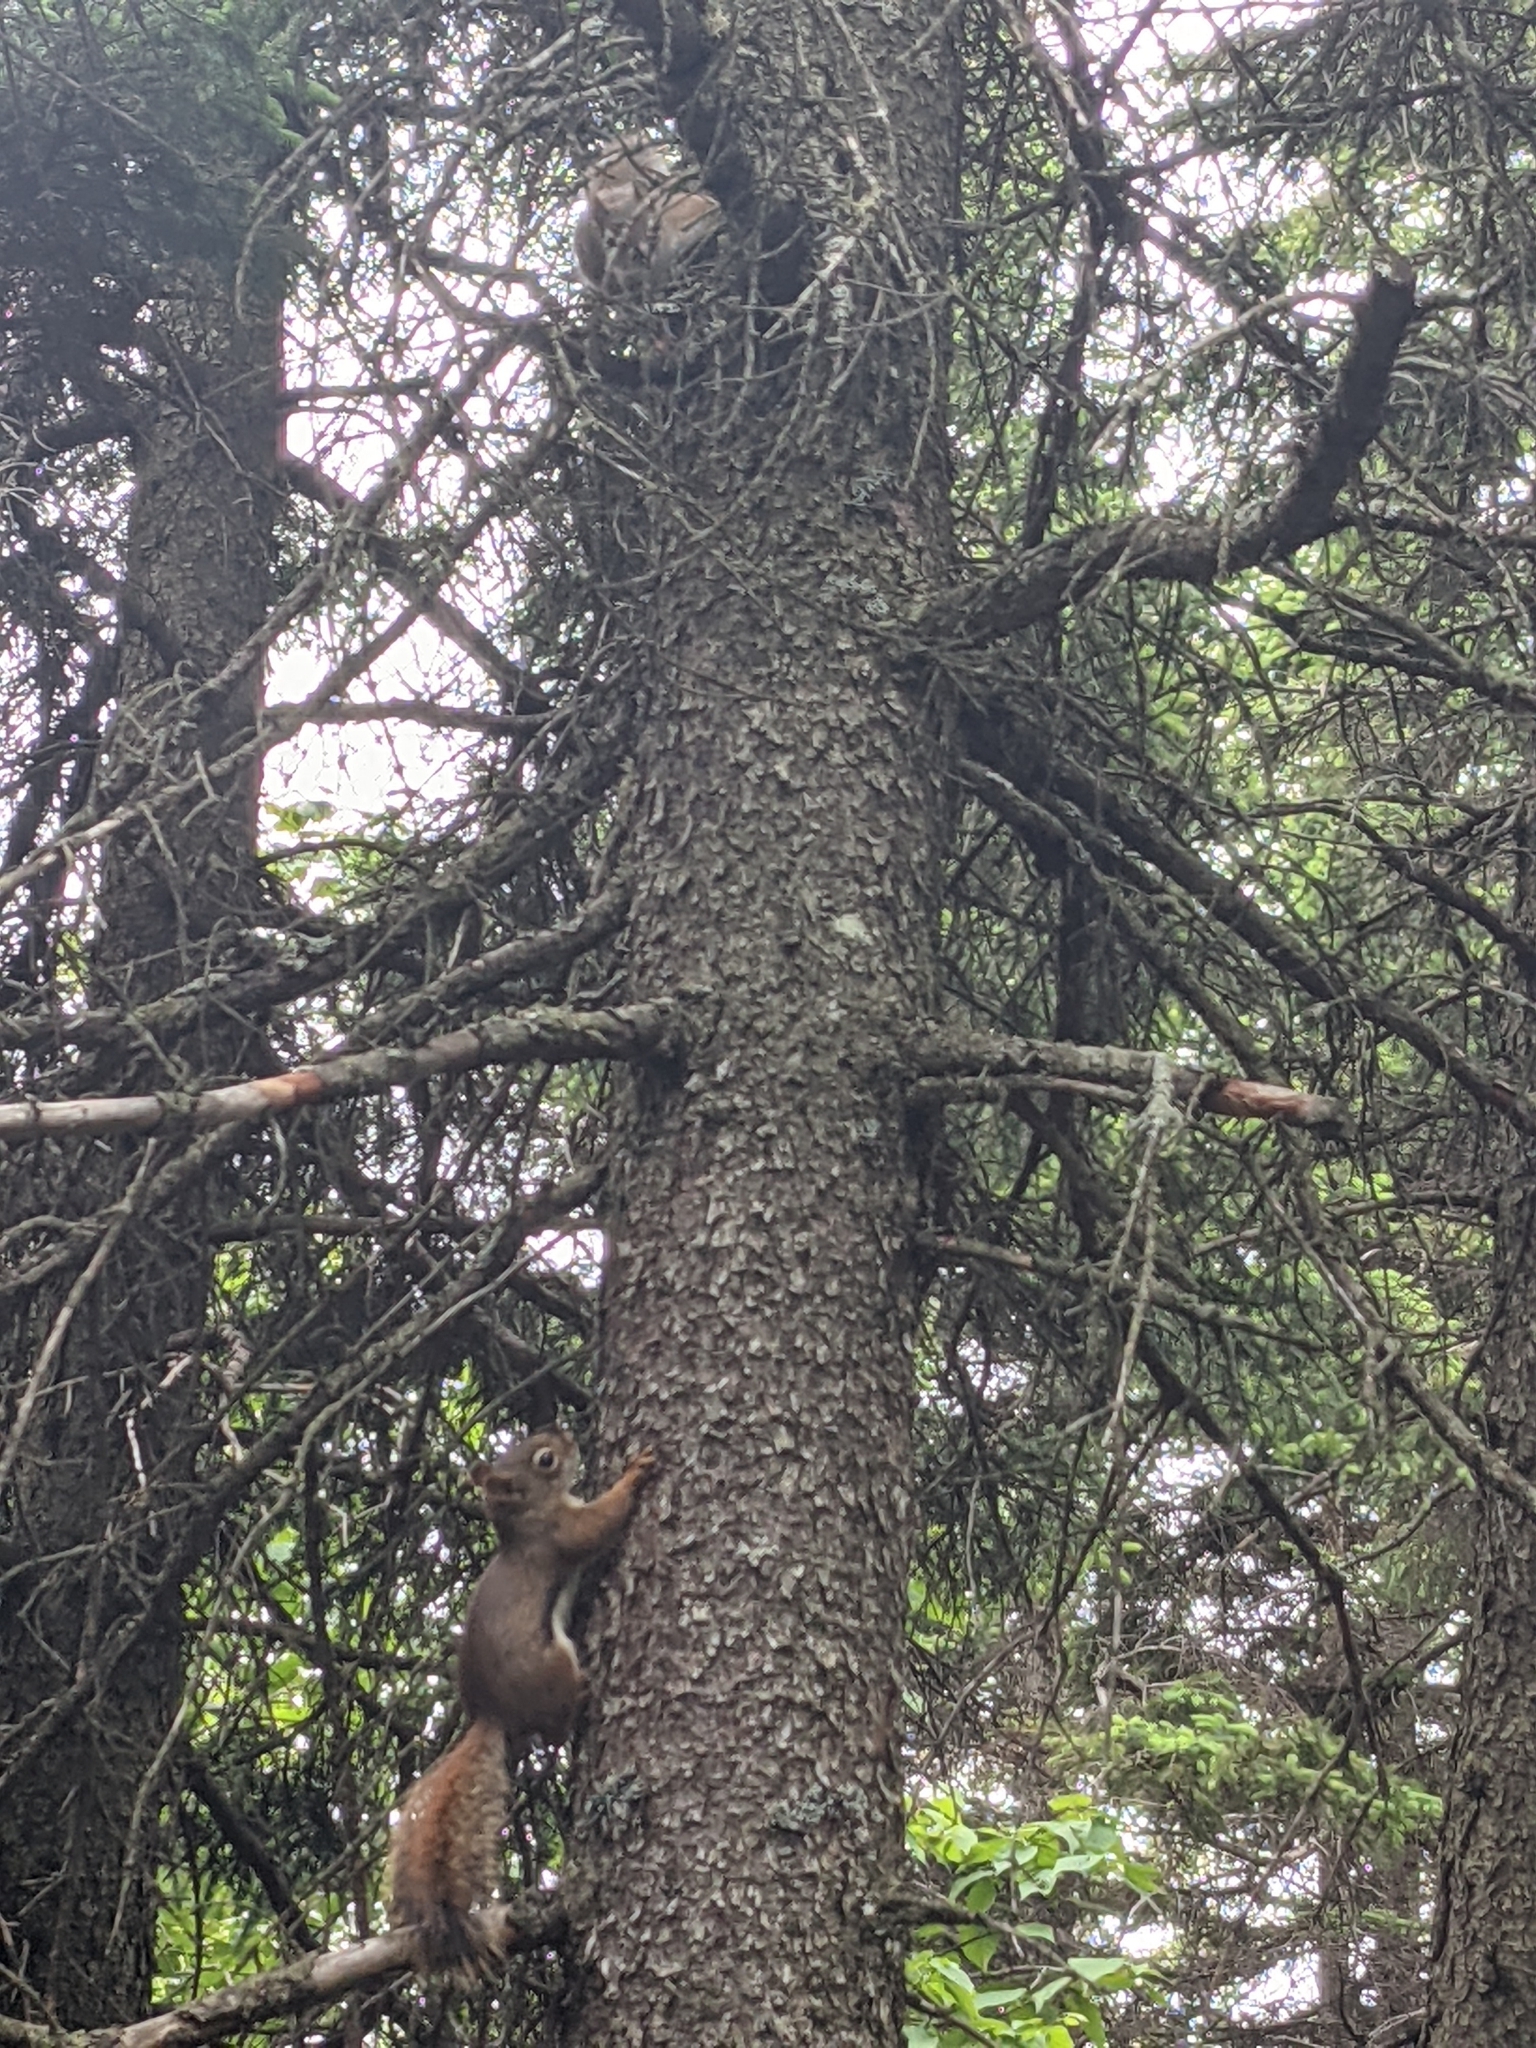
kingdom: Animalia
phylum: Chordata
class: Mammalia
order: Rodentia
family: Sciuridae
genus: Tamiasciurus
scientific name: Tamiasciurus hudsonicus
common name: Red squirrel
